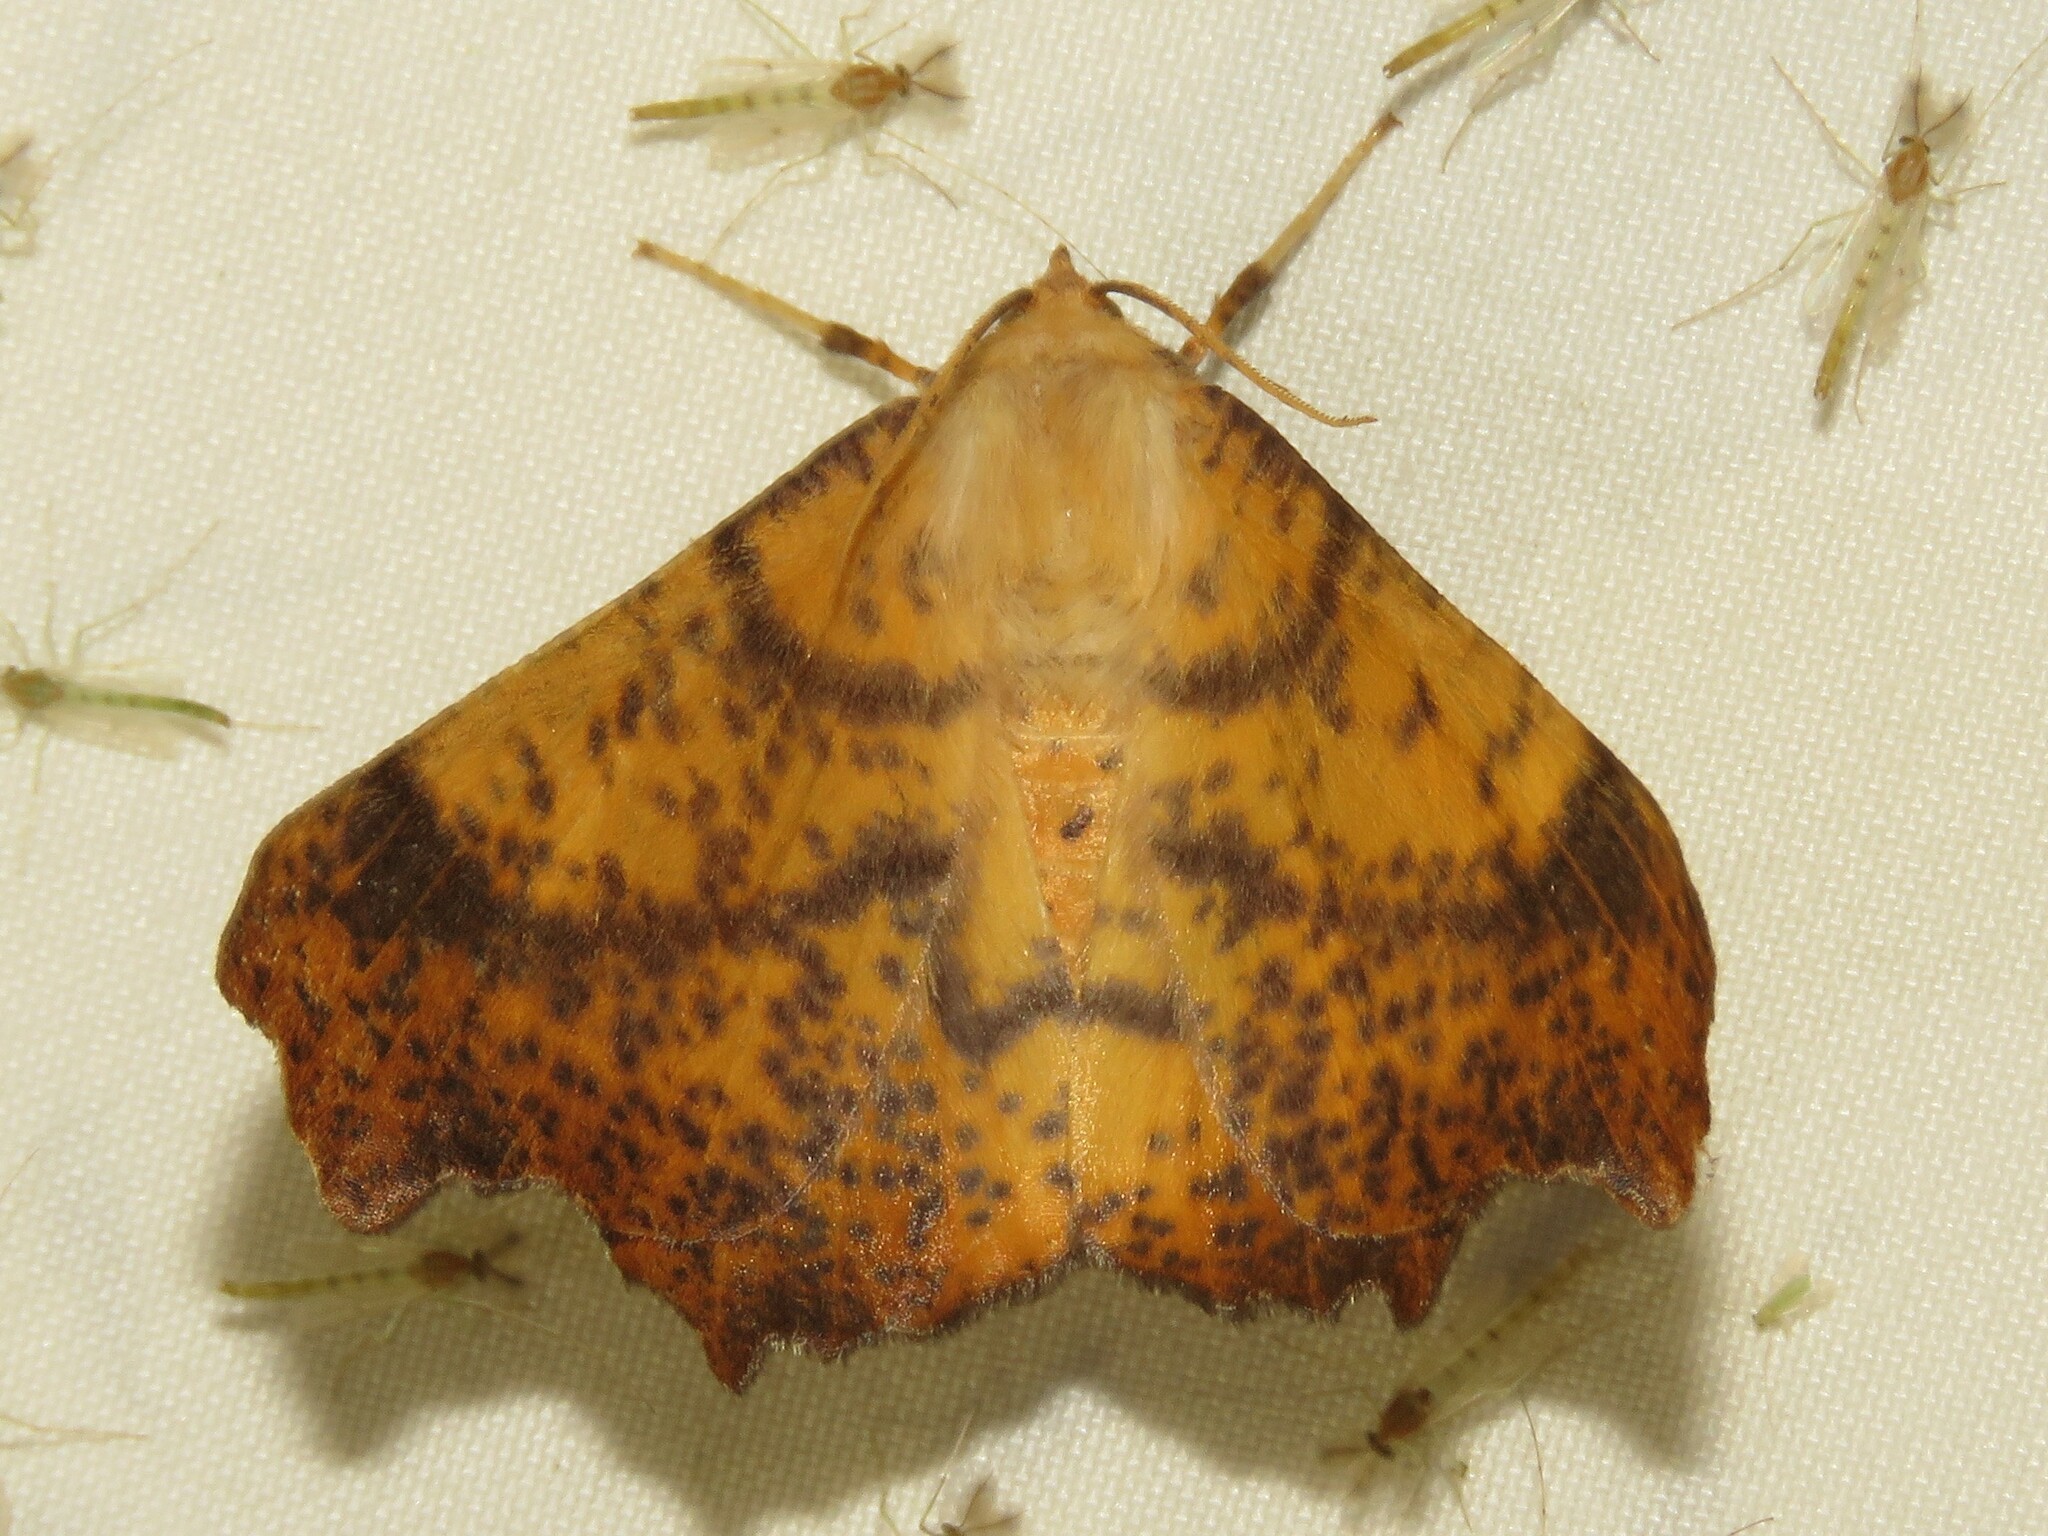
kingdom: Animalia
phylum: Arthropoda
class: Insecta
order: Lepidoptera
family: Geometridae
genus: Ennomos
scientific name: Ennomos magnaria
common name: Maple spanworm
